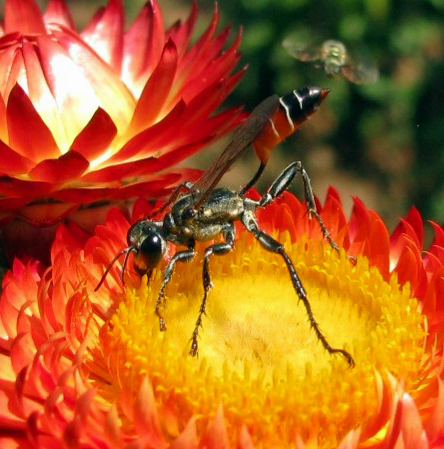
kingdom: Animalia
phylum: Arthropoda
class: Insecta
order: Hymenoptera
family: Sphecidae
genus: Prionyx
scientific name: Prionyx kirbii
